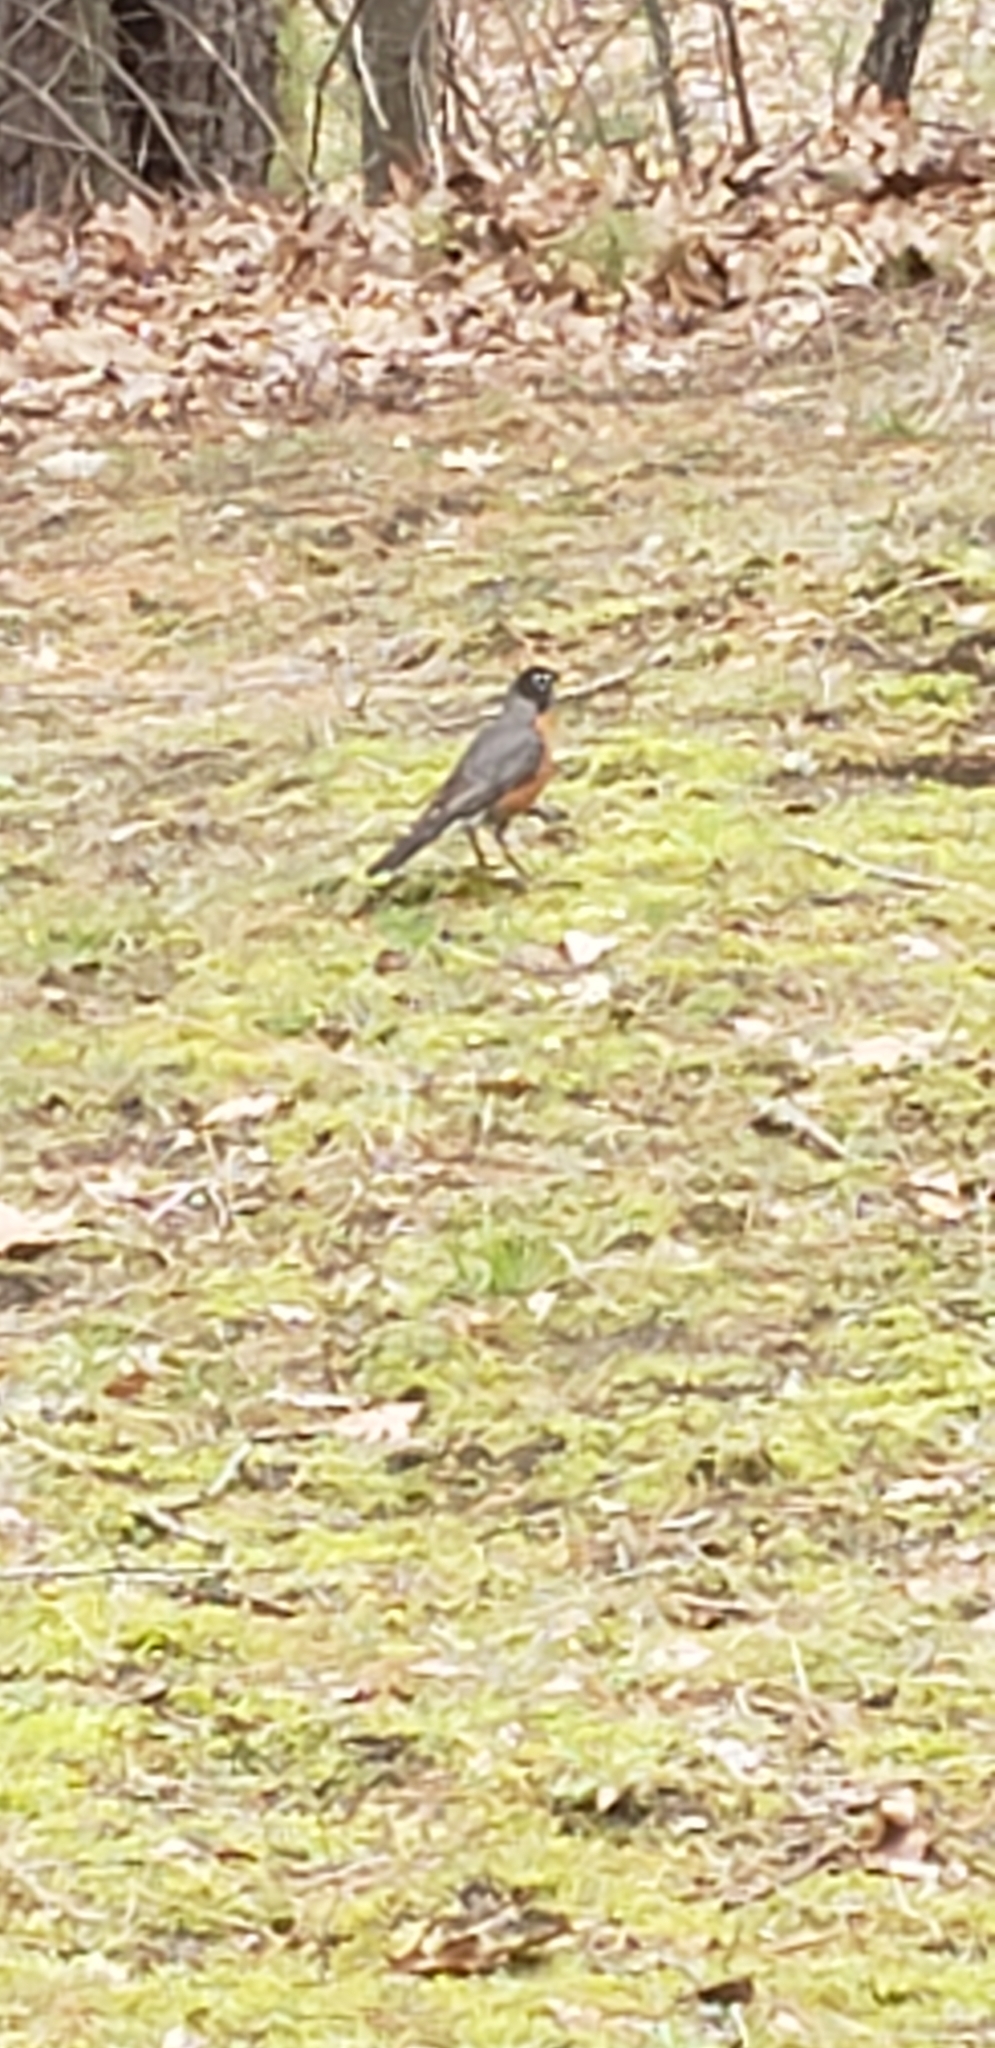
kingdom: Animalia
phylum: Chordata
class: Aves
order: Passeriformes
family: Turdidae
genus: Turdus
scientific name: Turdus migratorius
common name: American robin
